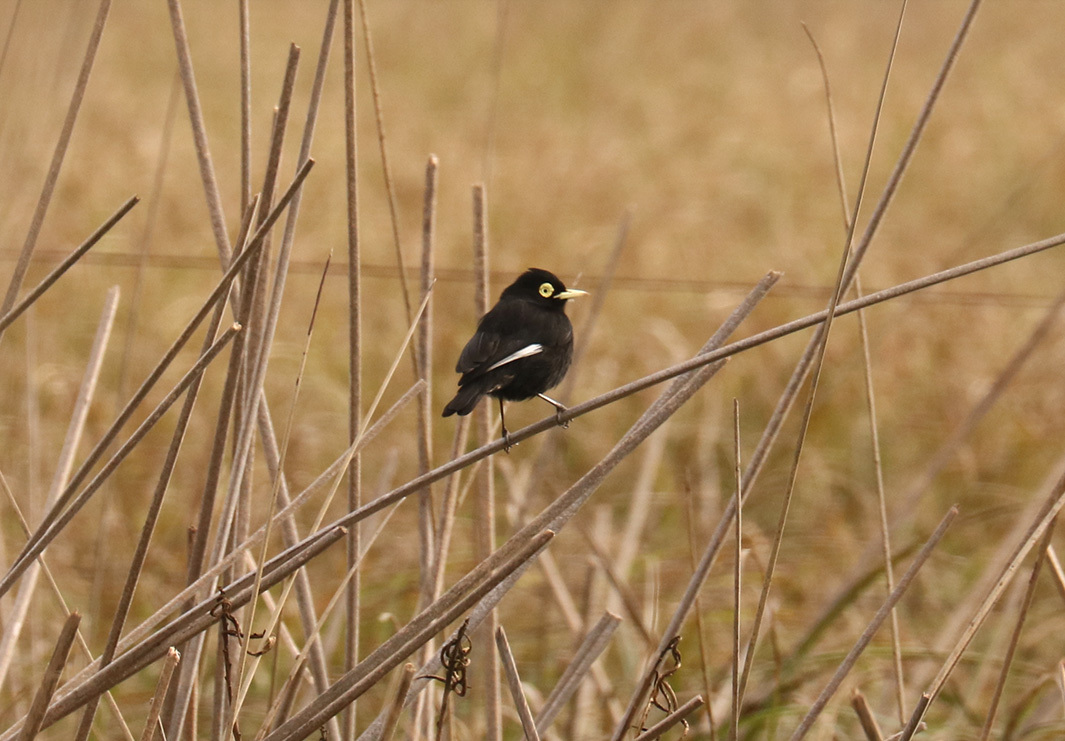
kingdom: Animalia
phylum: Chordata
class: Aves
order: Passeriformes
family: Tyrannidae
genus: Hymenops
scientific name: Hymenops perspicillatus
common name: Spectacled tyrant
